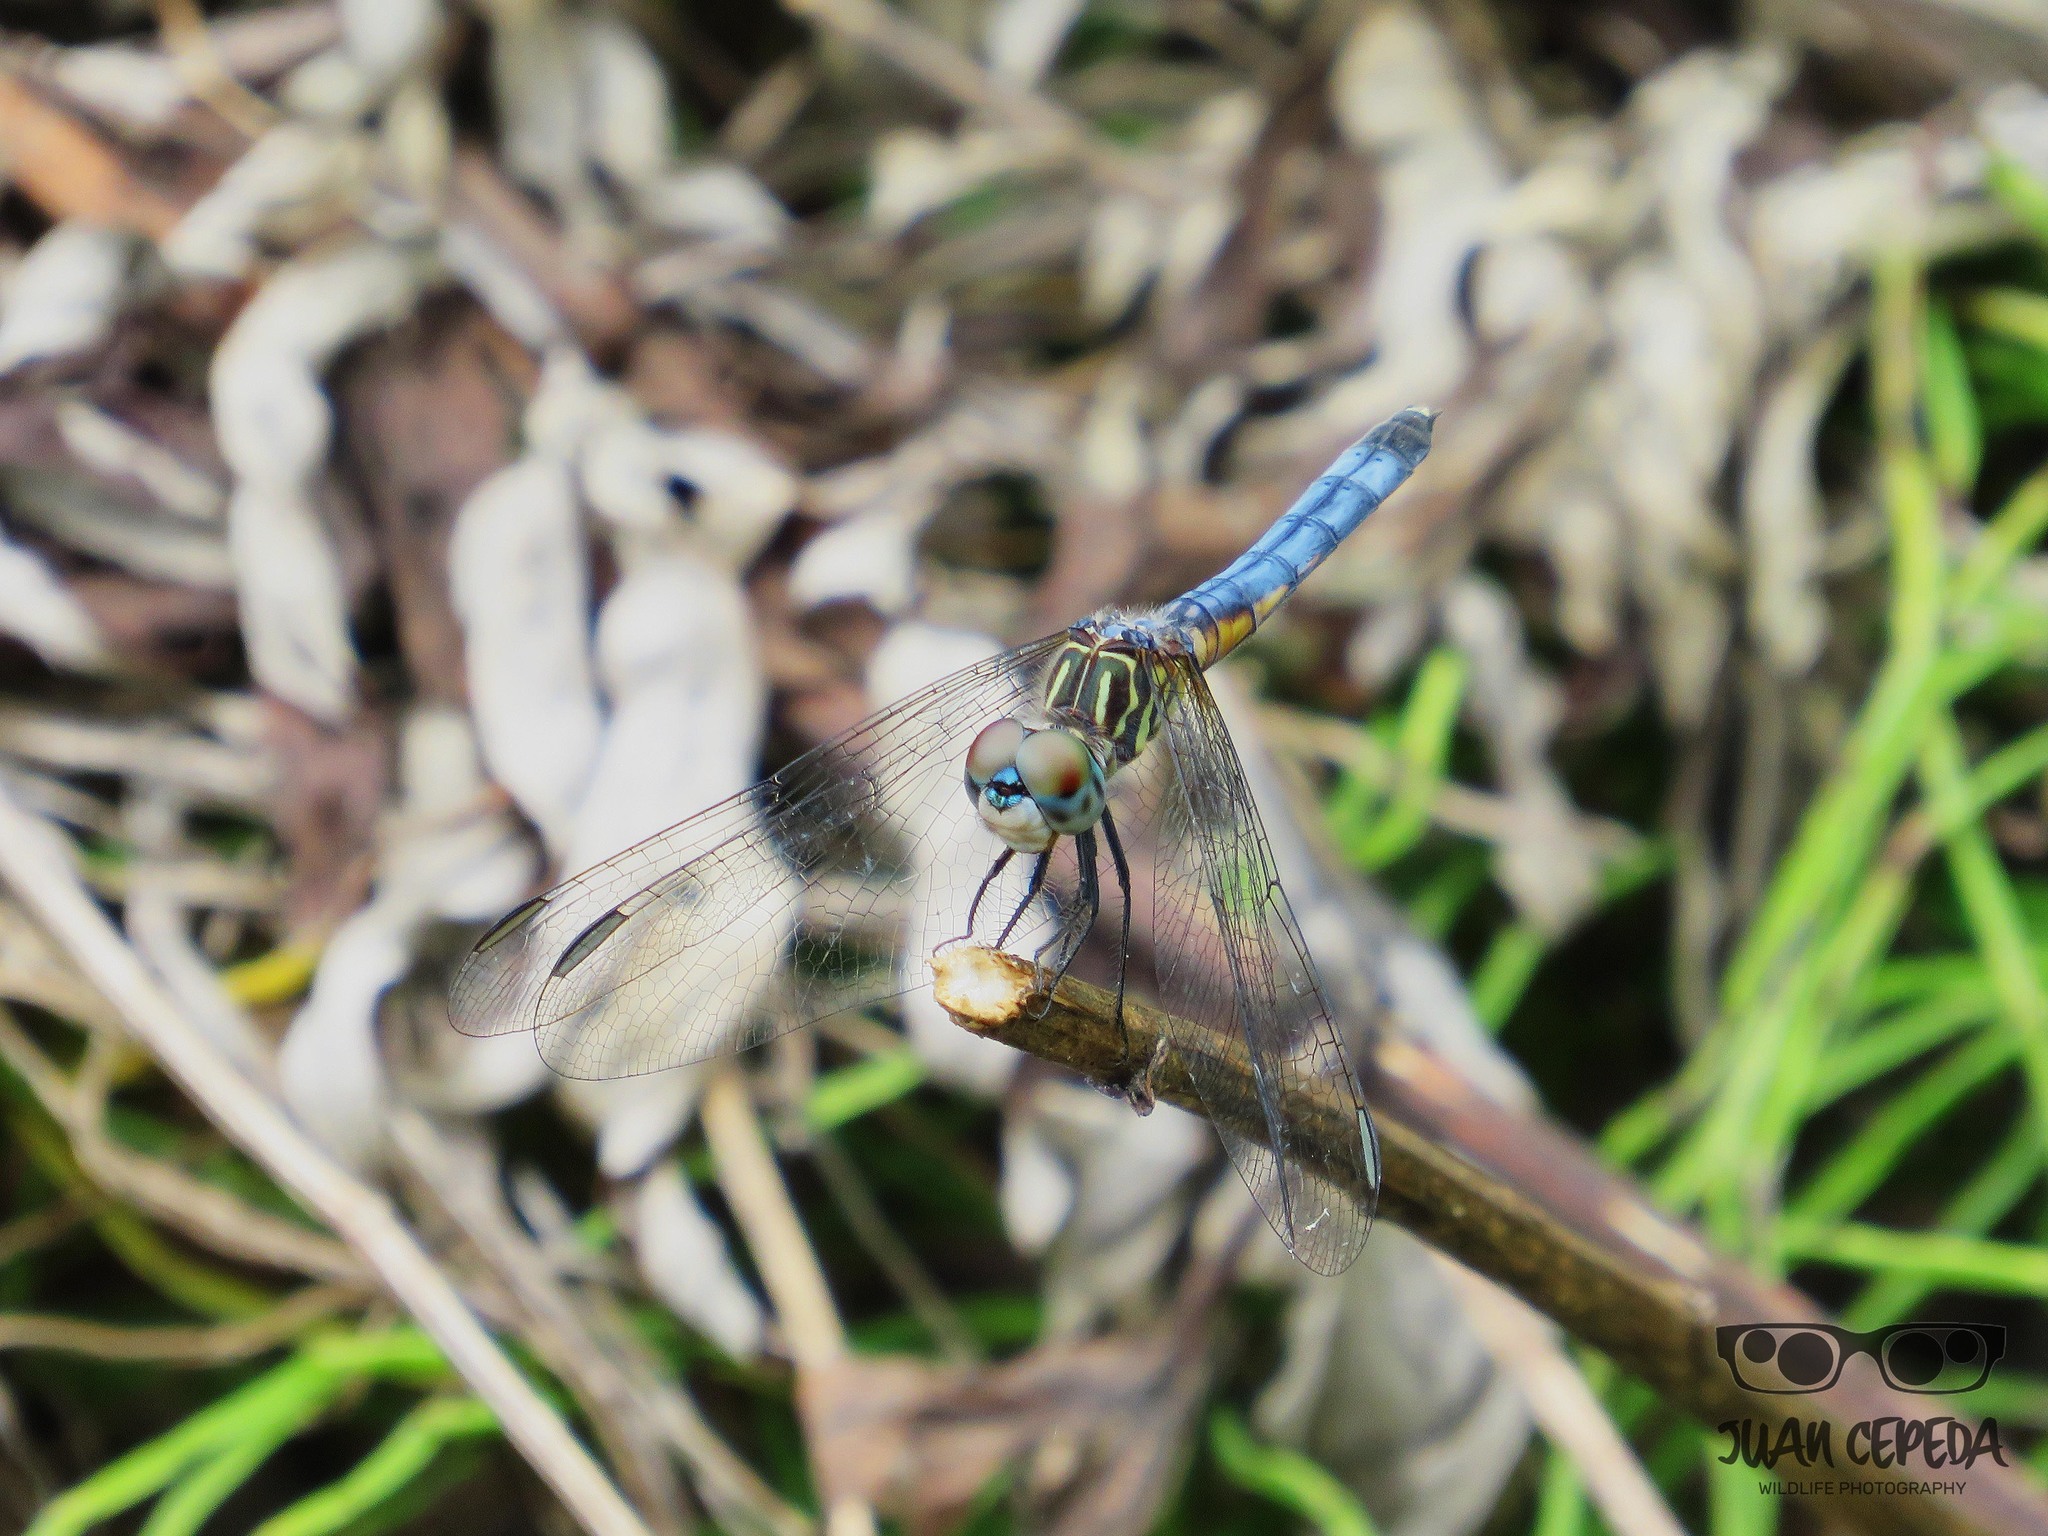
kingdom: Animalia
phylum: Arthropoda
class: Insecta
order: Odonata
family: Libellulidae
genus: Pachydiplax
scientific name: Pachydiplax longipennis
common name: Blue dasher
